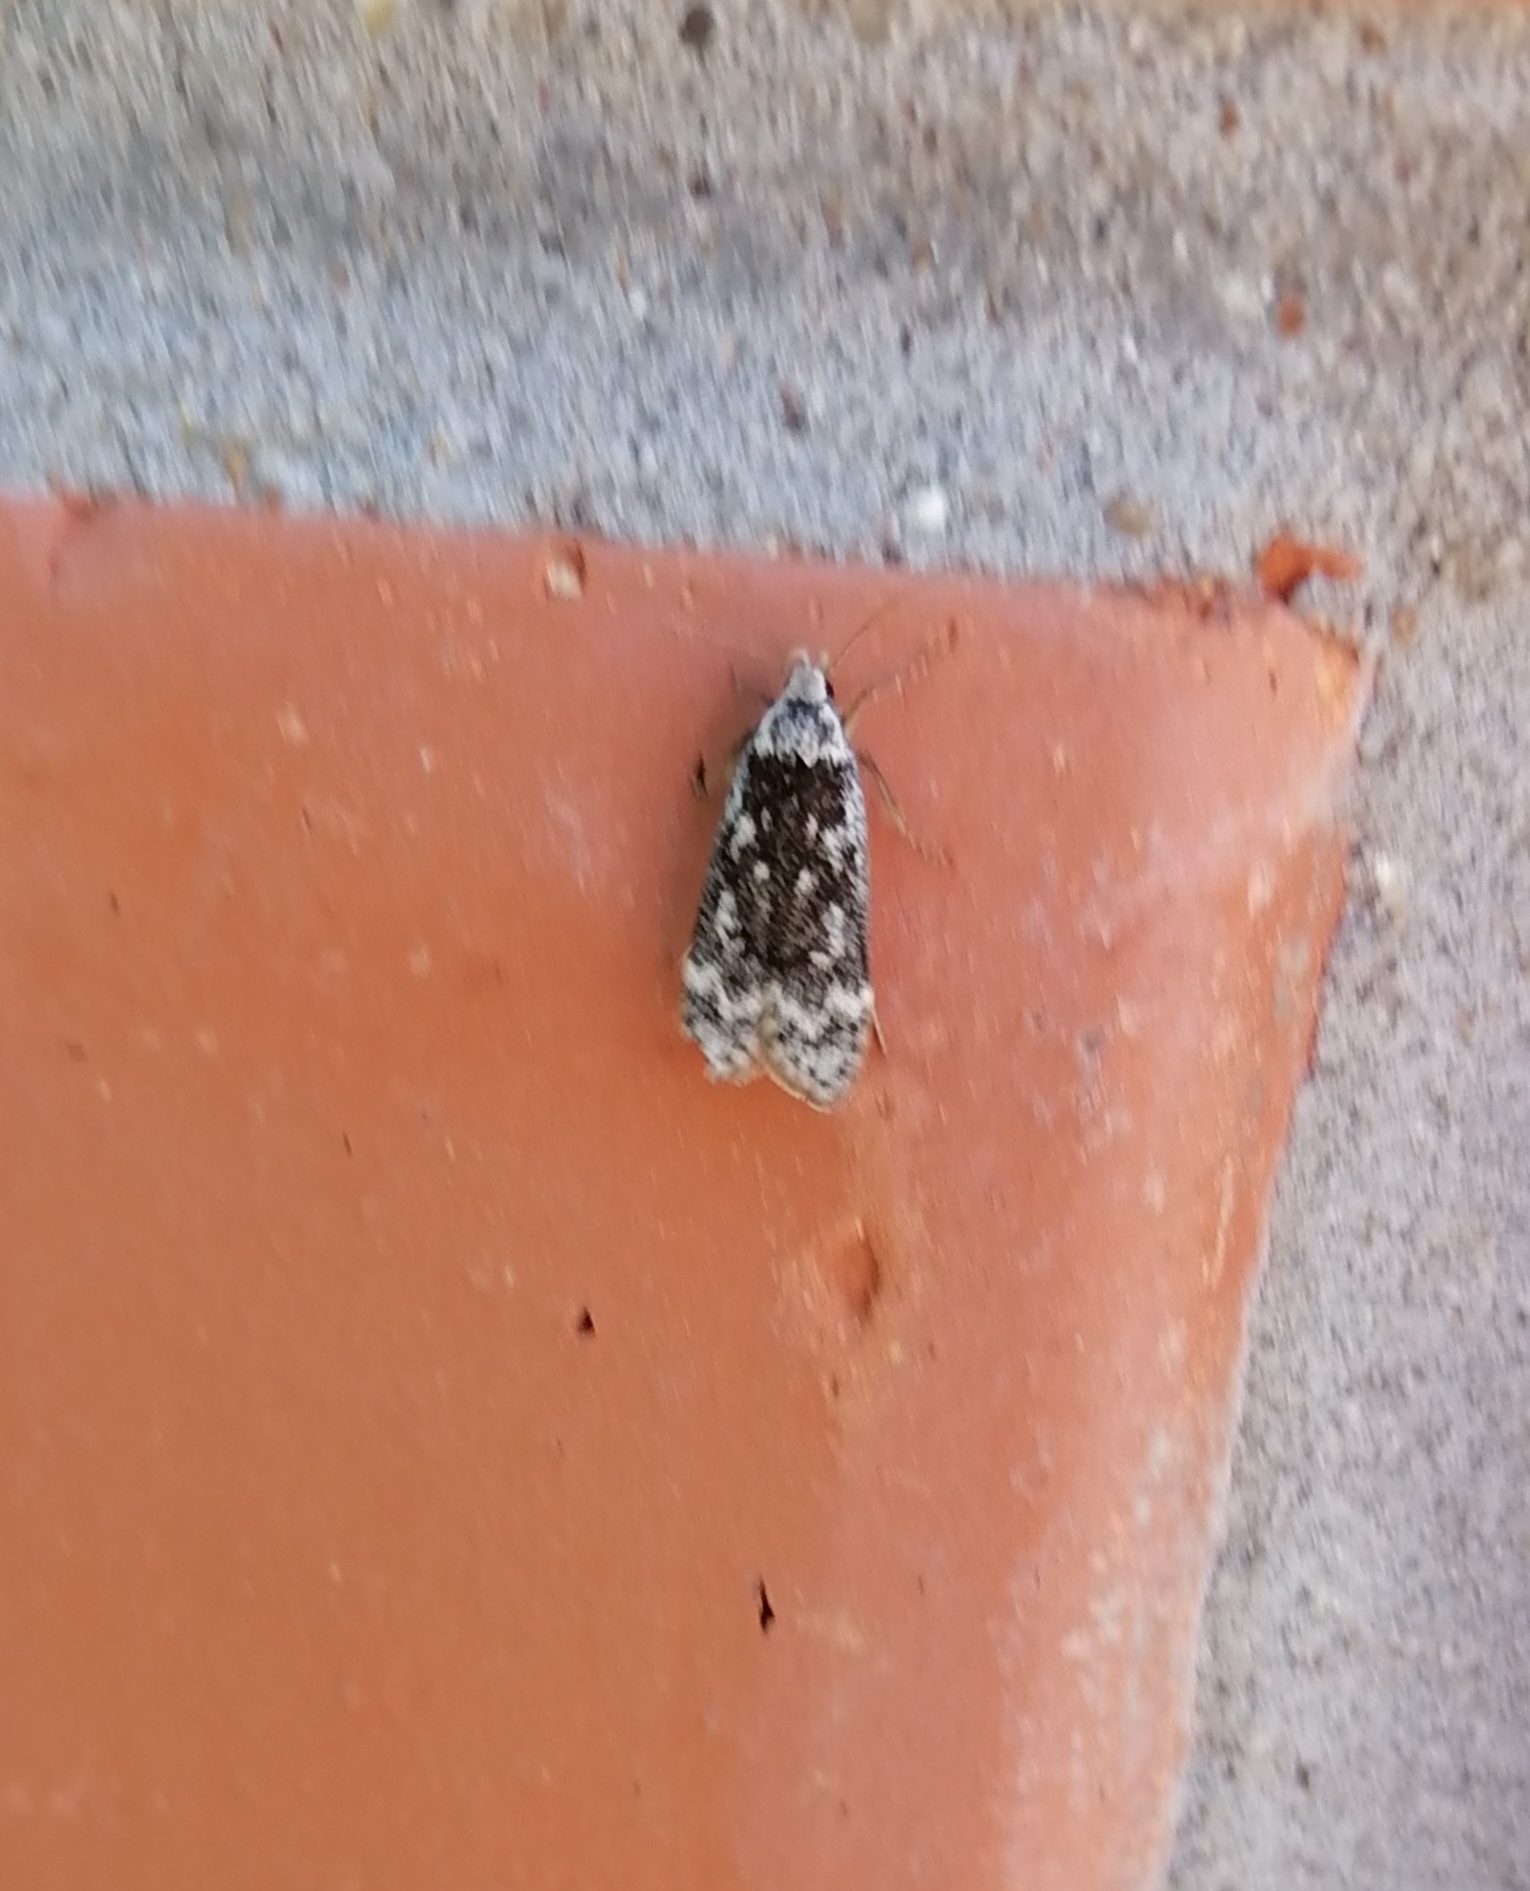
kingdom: Animalia
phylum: Arthropoda
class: Insecta
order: Lepidoptera
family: Gelechiidae
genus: Anacampsis
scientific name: Anacampsis blattariella
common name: Birch sober
